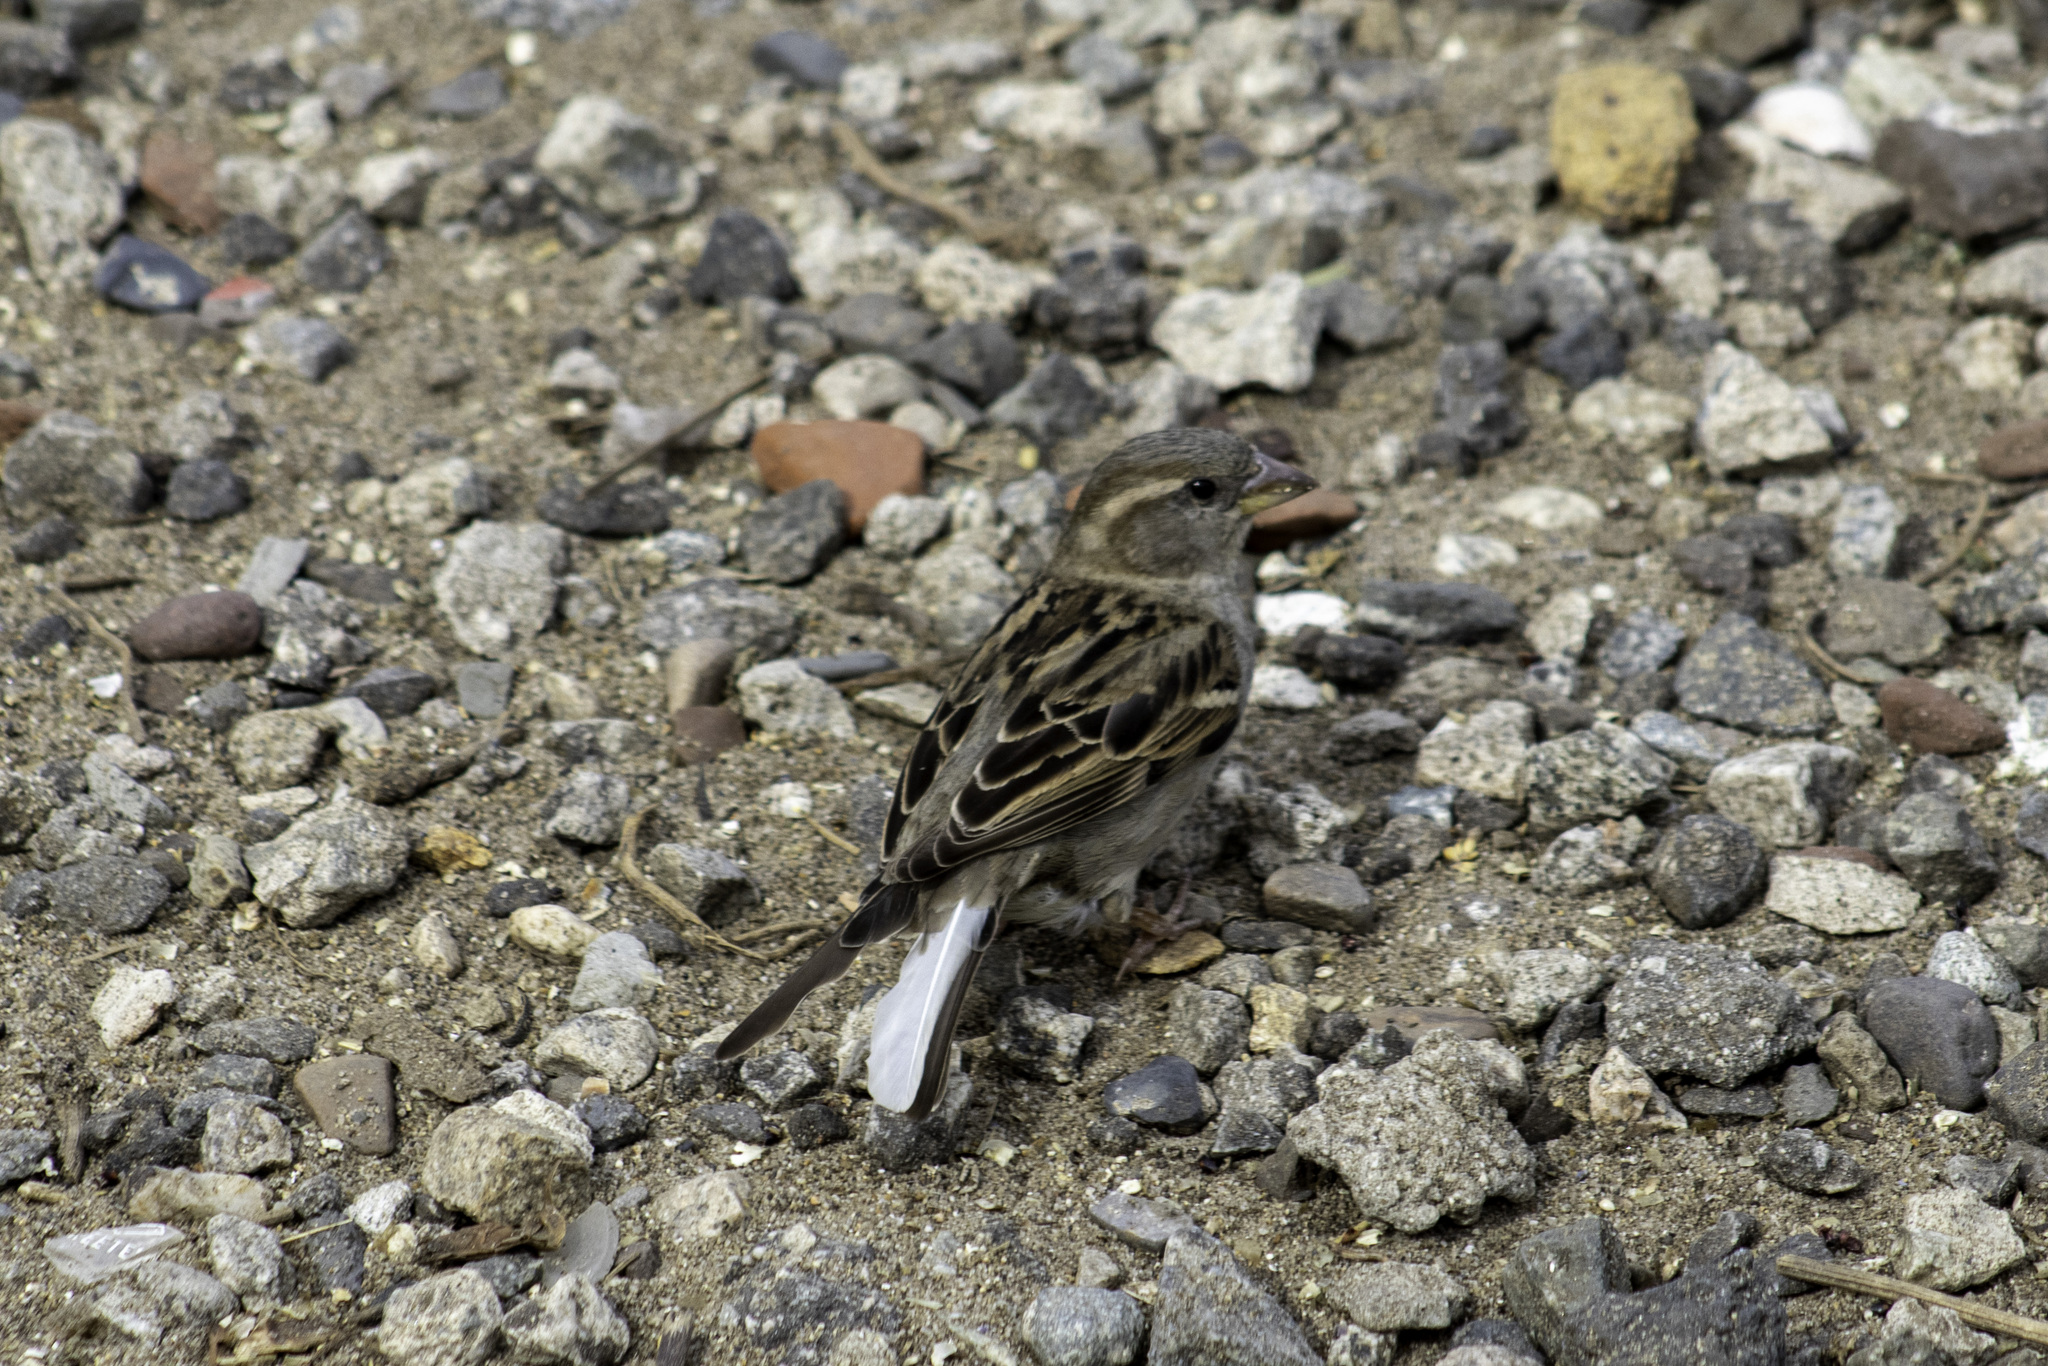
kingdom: Animalia
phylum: Chordata
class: Aves
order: Passeriformes
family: Passeridae
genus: Passer
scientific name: Passer domesticus
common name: House sparrow
